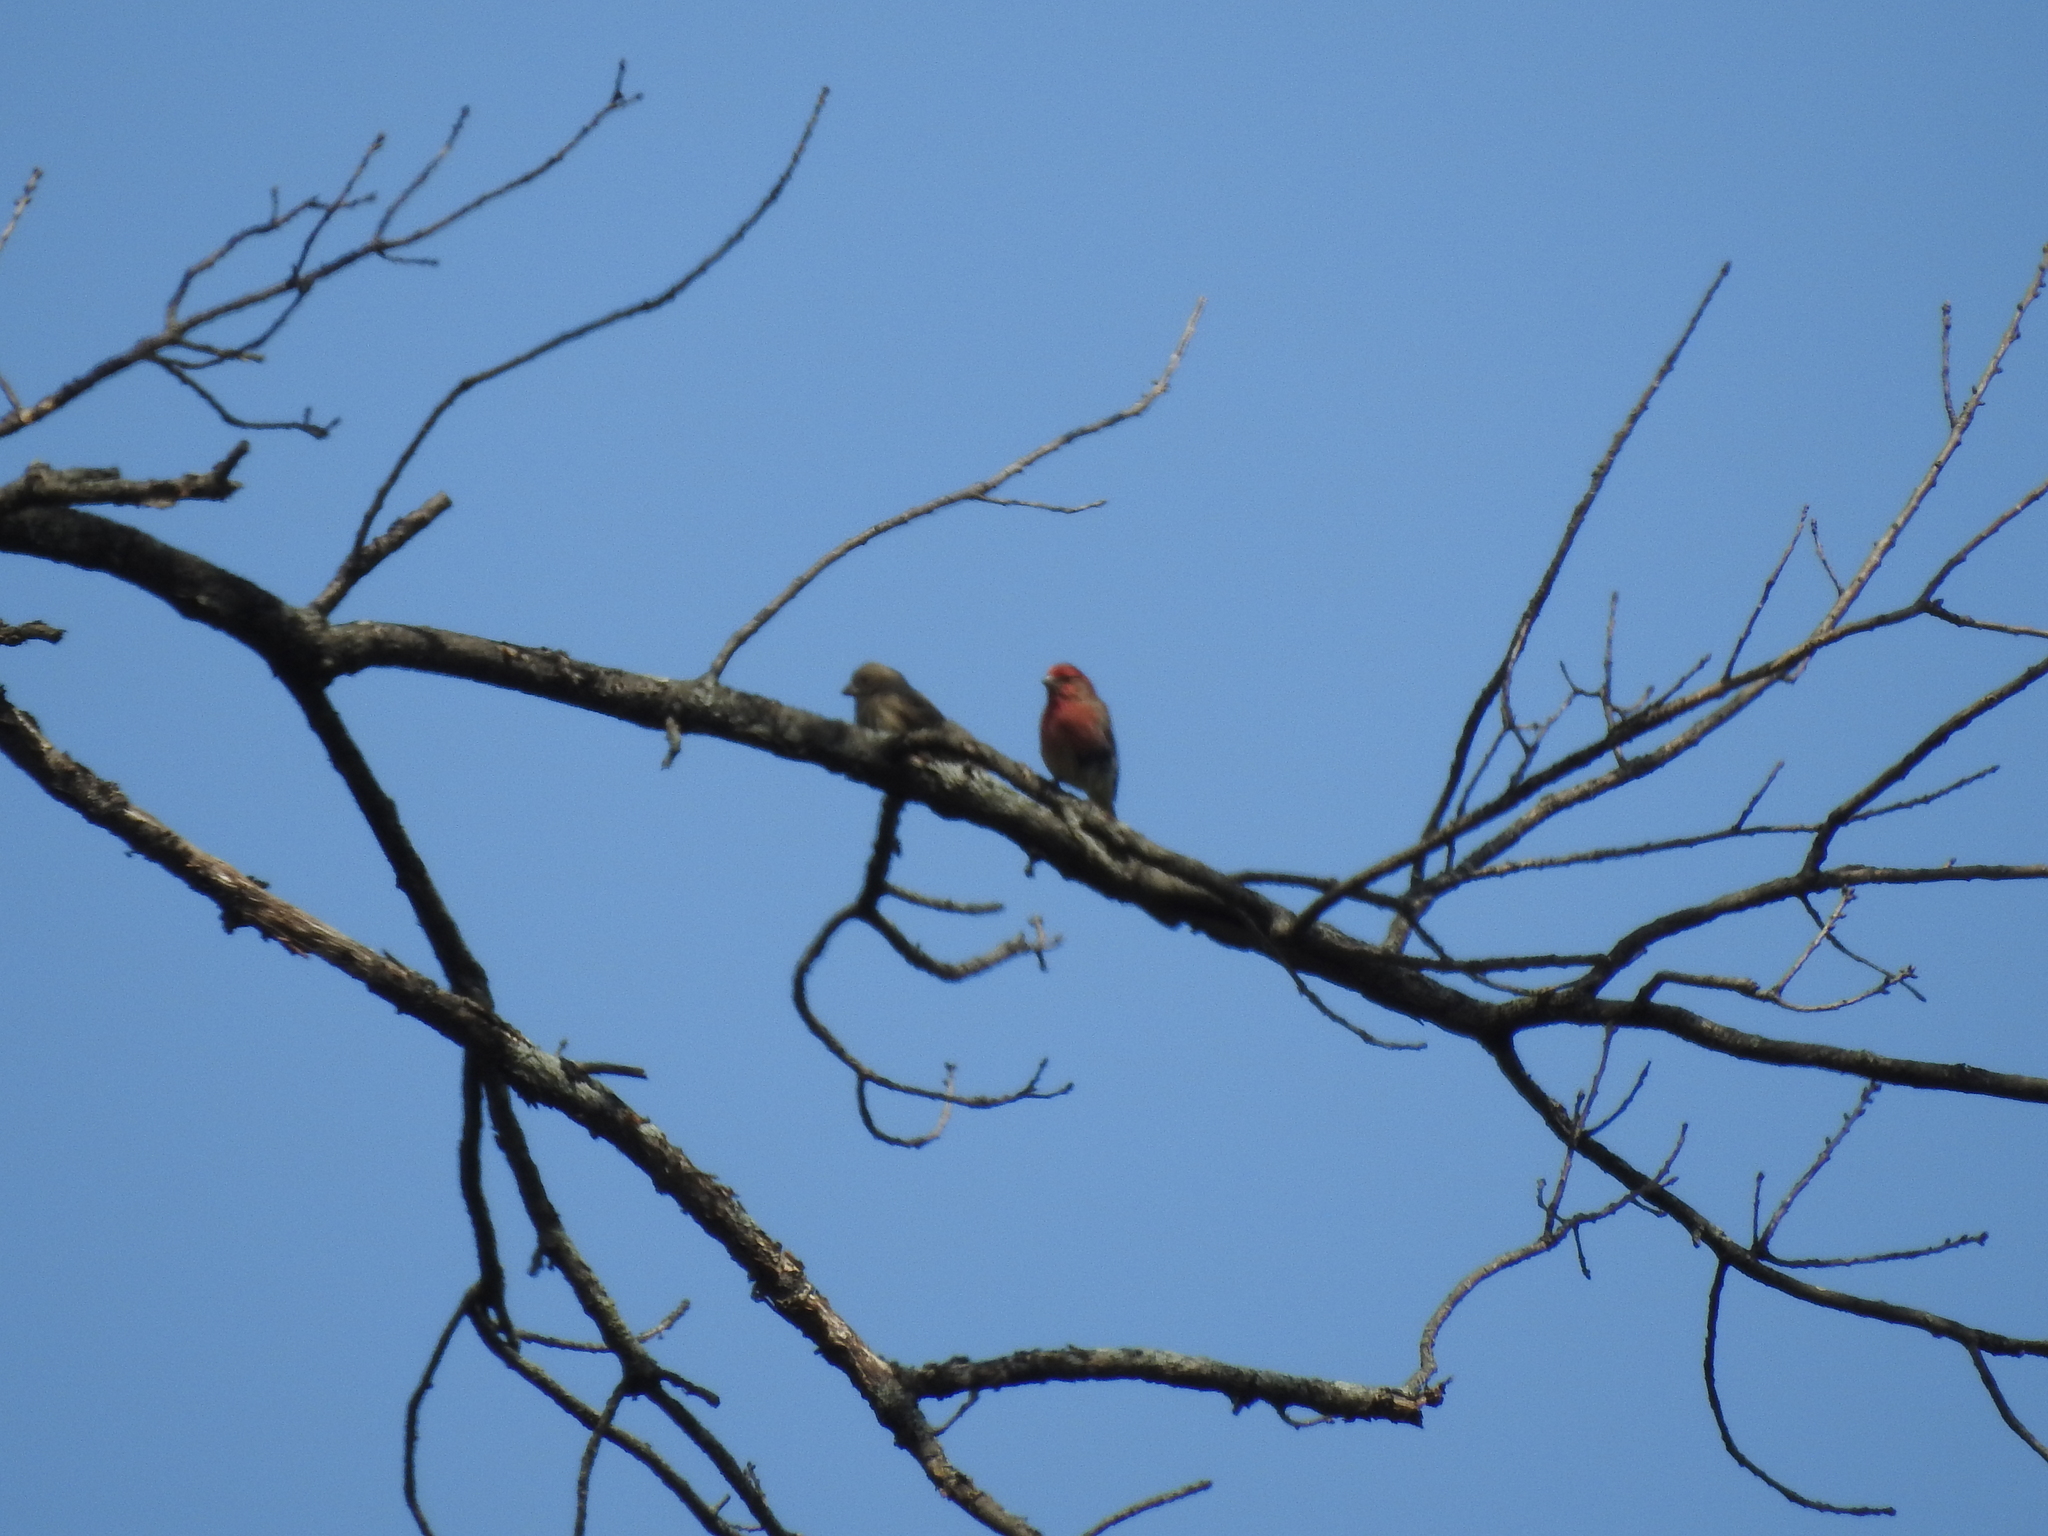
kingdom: Animalia
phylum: Chordata
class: Aves
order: Passeriformes
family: Fringillidae
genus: Haemorhous
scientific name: Haemorhous mexicanus
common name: House finch
